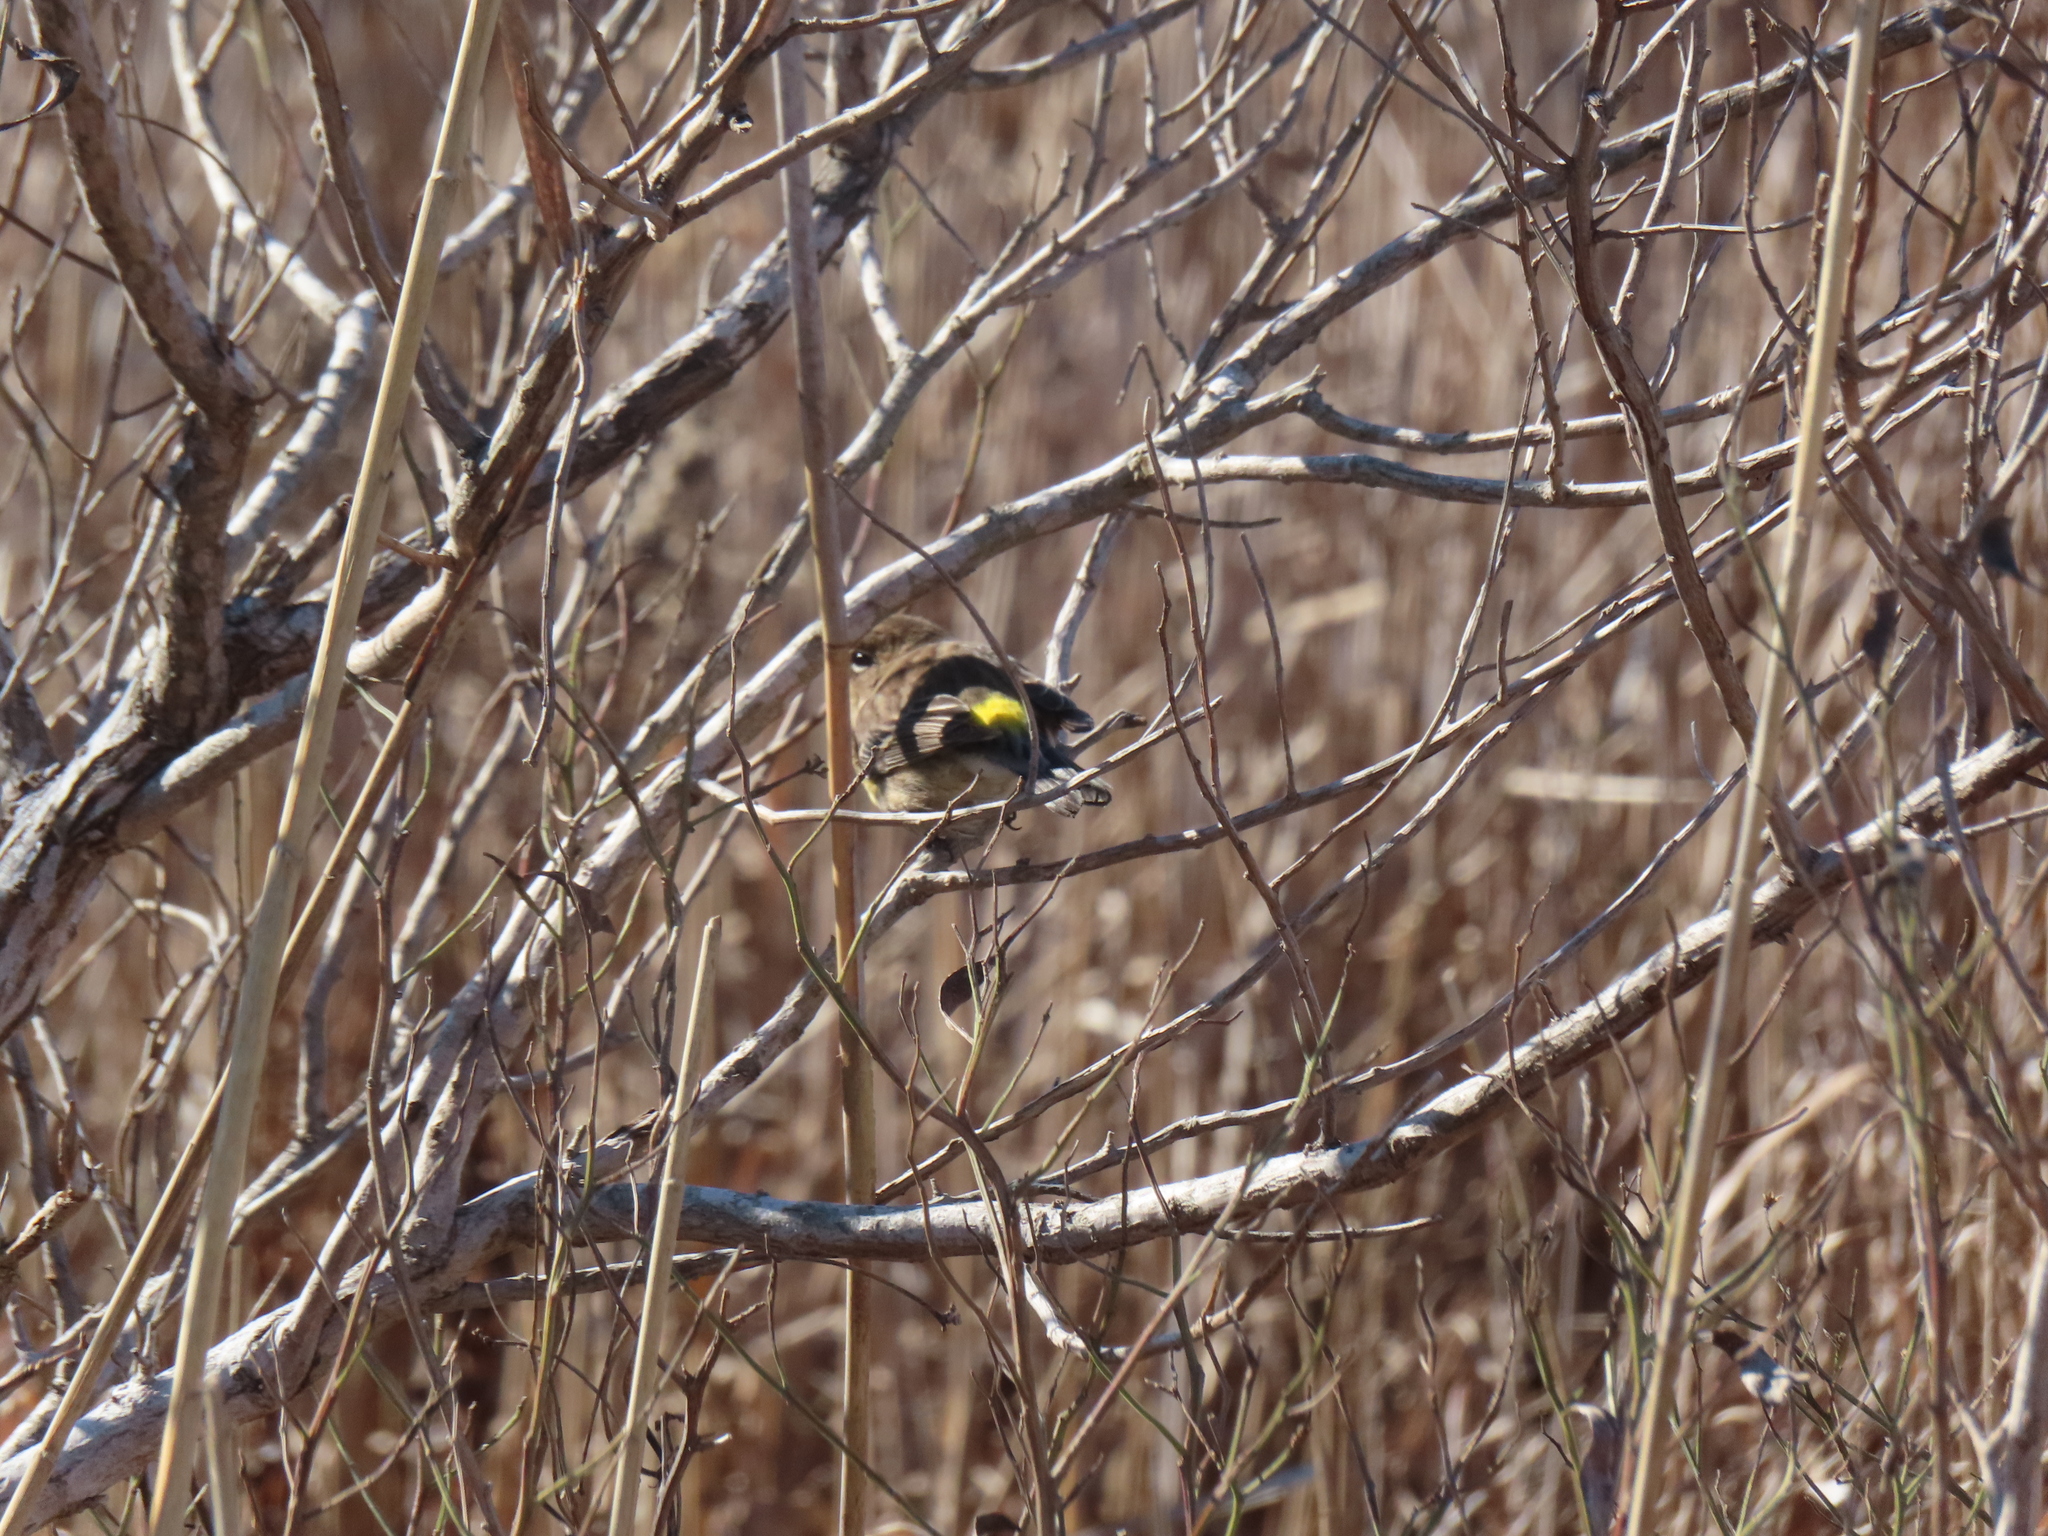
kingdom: Animalia
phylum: Chordata
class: Aves
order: Passeriformes
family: Parulidae
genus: Setophaga
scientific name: Setophaga coronata
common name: Myrtle warbler
